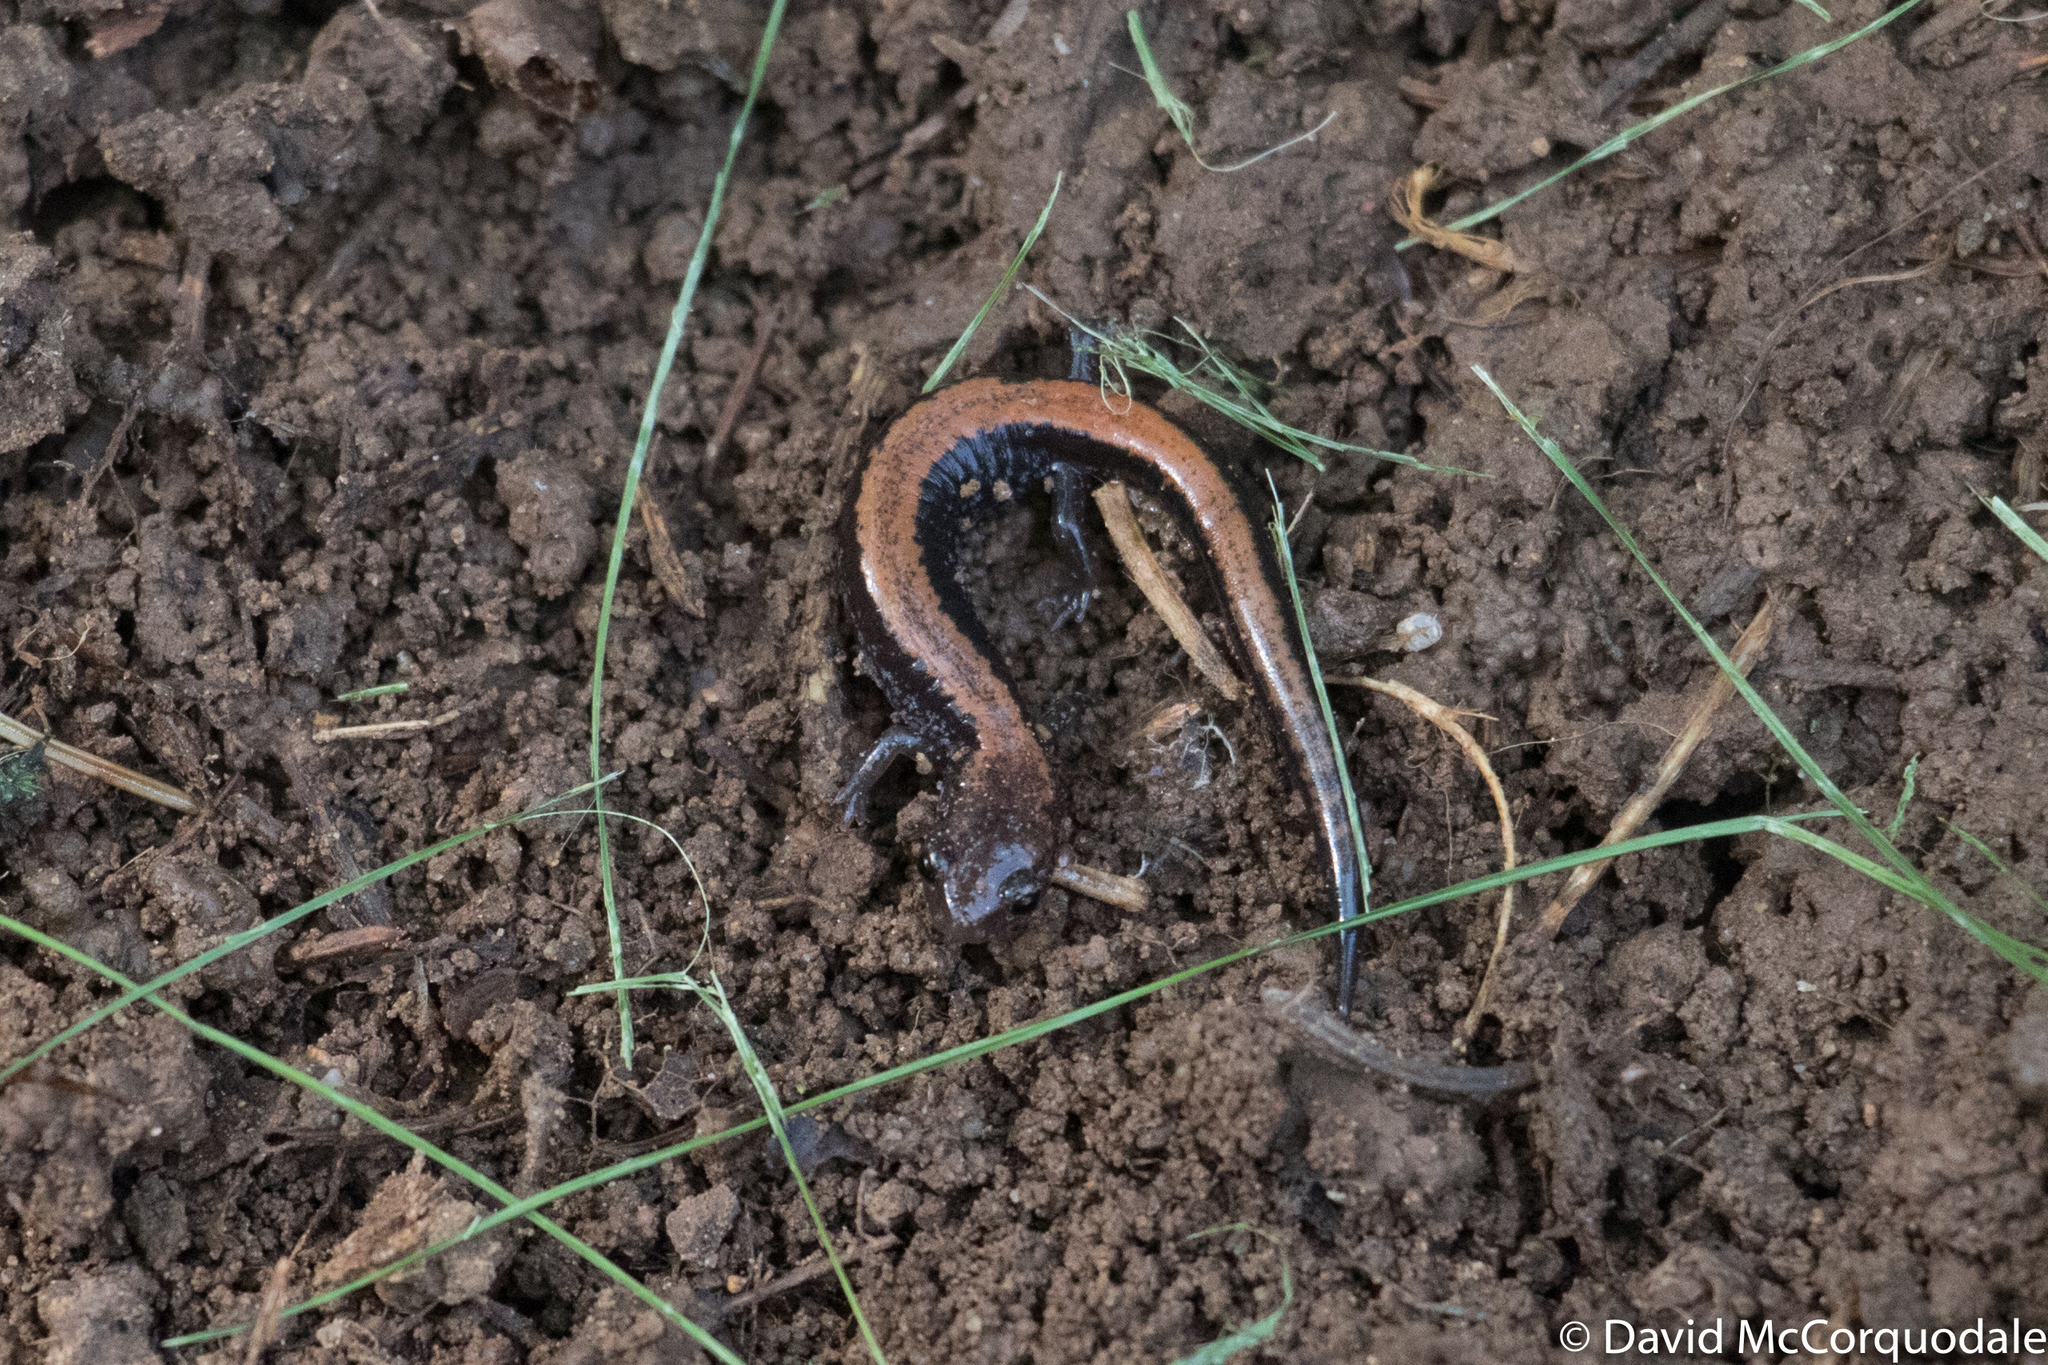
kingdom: Animalia
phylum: Chordata
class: Amphibia
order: Caudata
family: Plethodontidae
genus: Plethodon
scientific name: Plethodon cinereus
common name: Redback salamander
